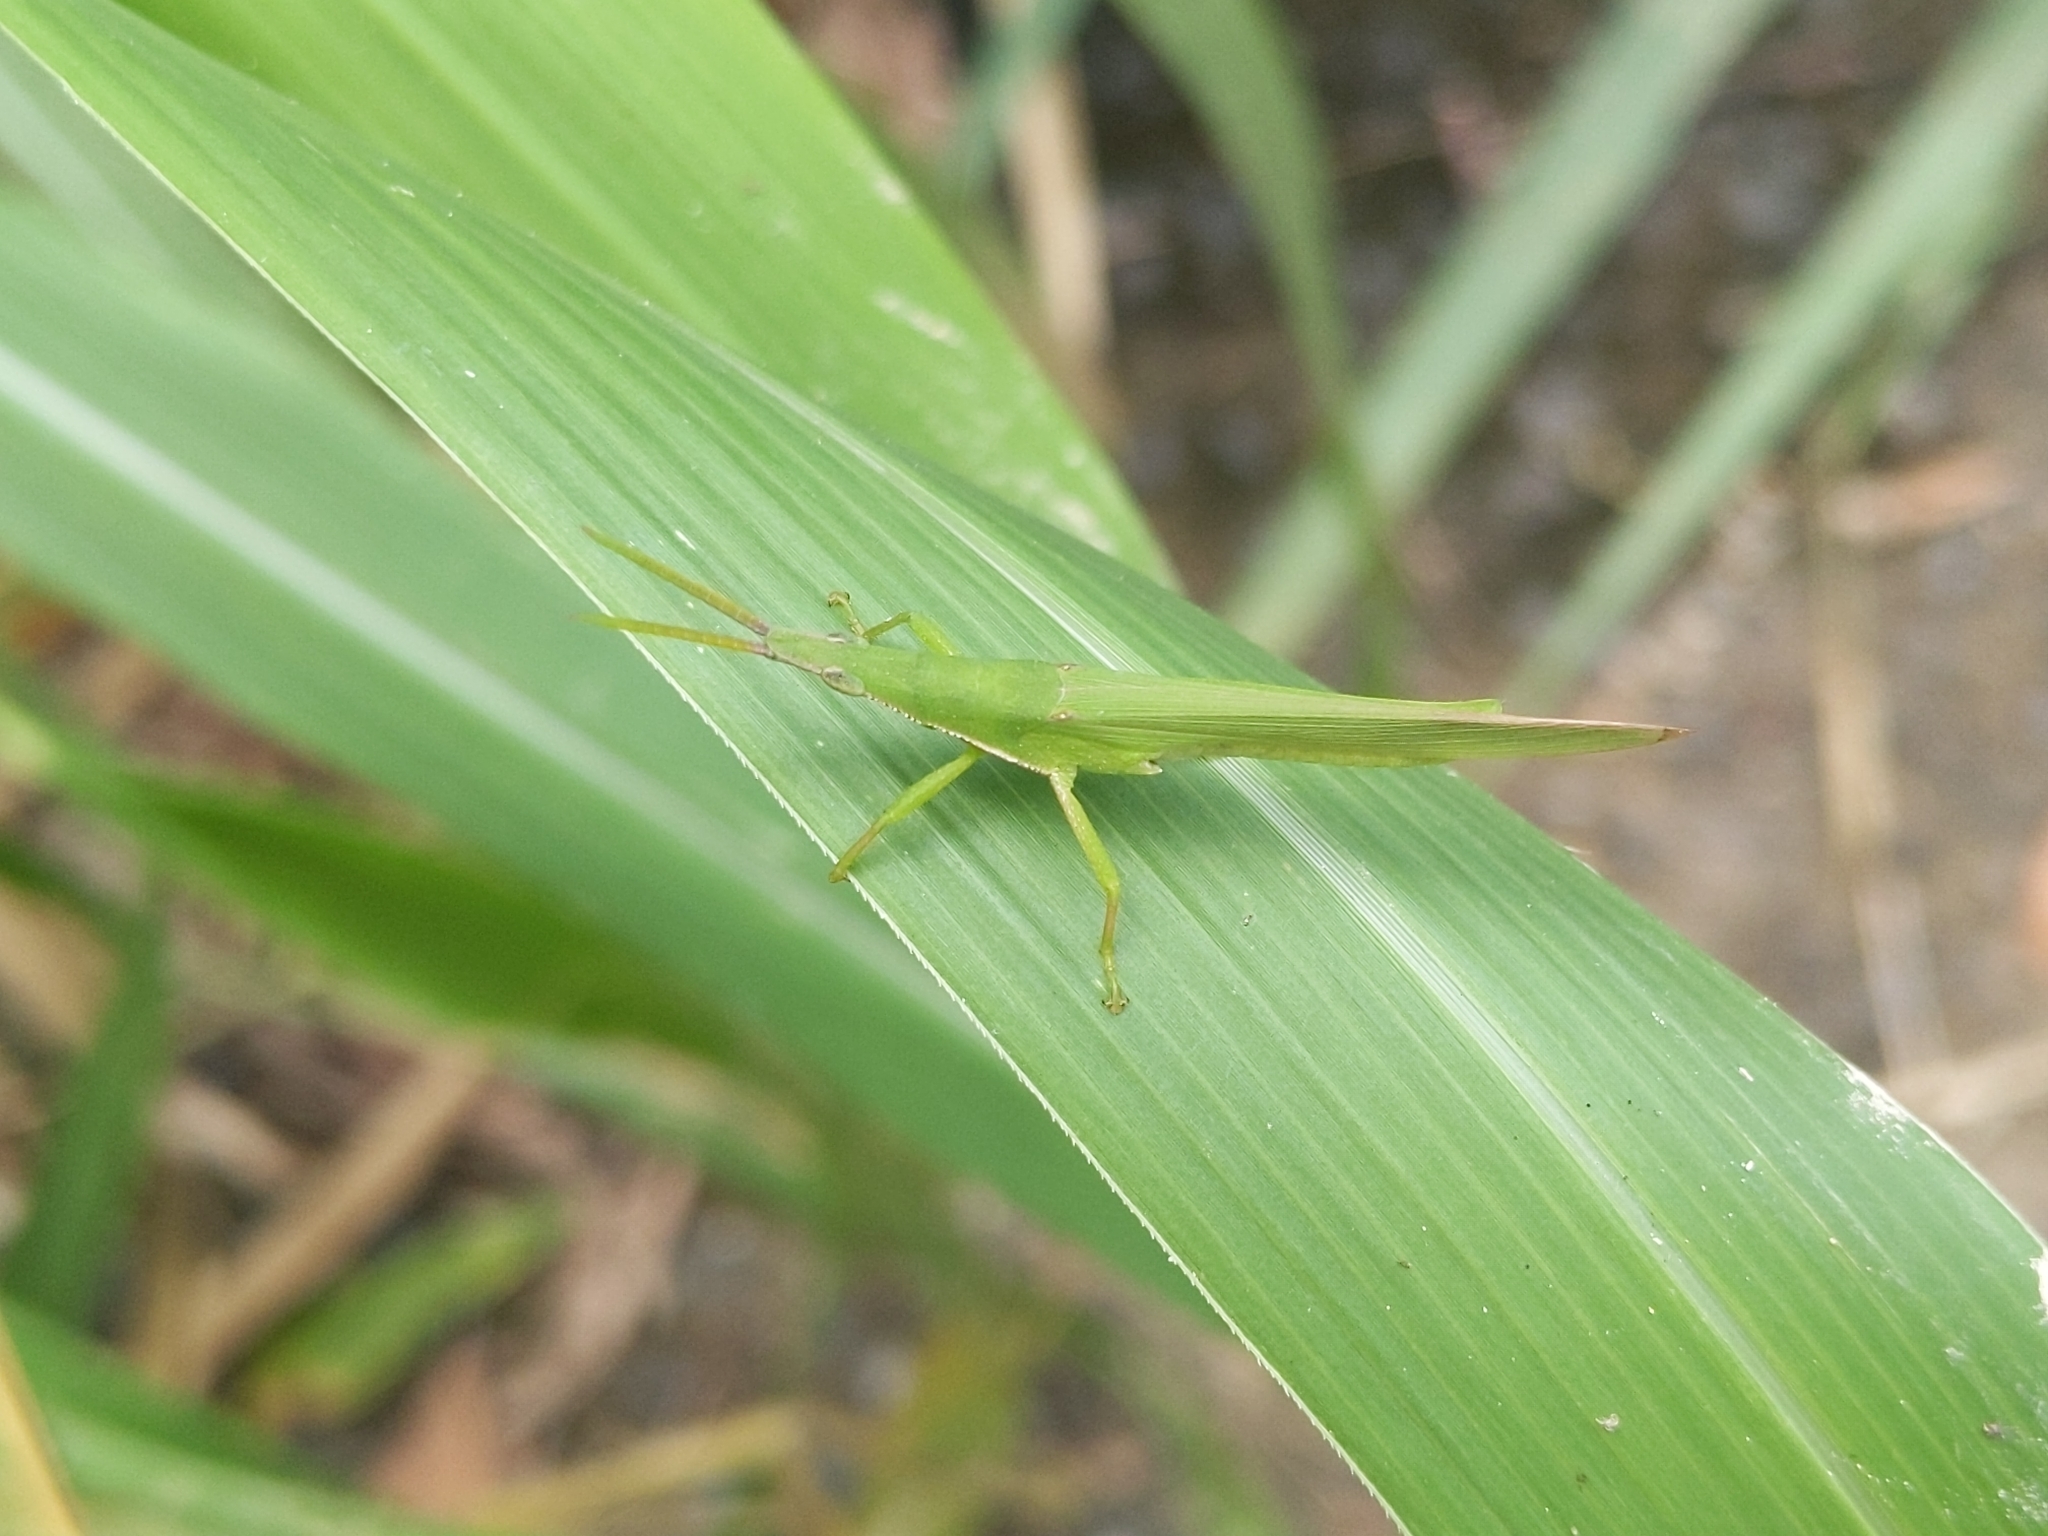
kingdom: Animalia
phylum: Arthropoda
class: Insecta
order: Orthoptera
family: Pyrgomorphidae
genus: Atractomorpha
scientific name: Atractomorpha similis
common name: Northern grass pyrgomorph
